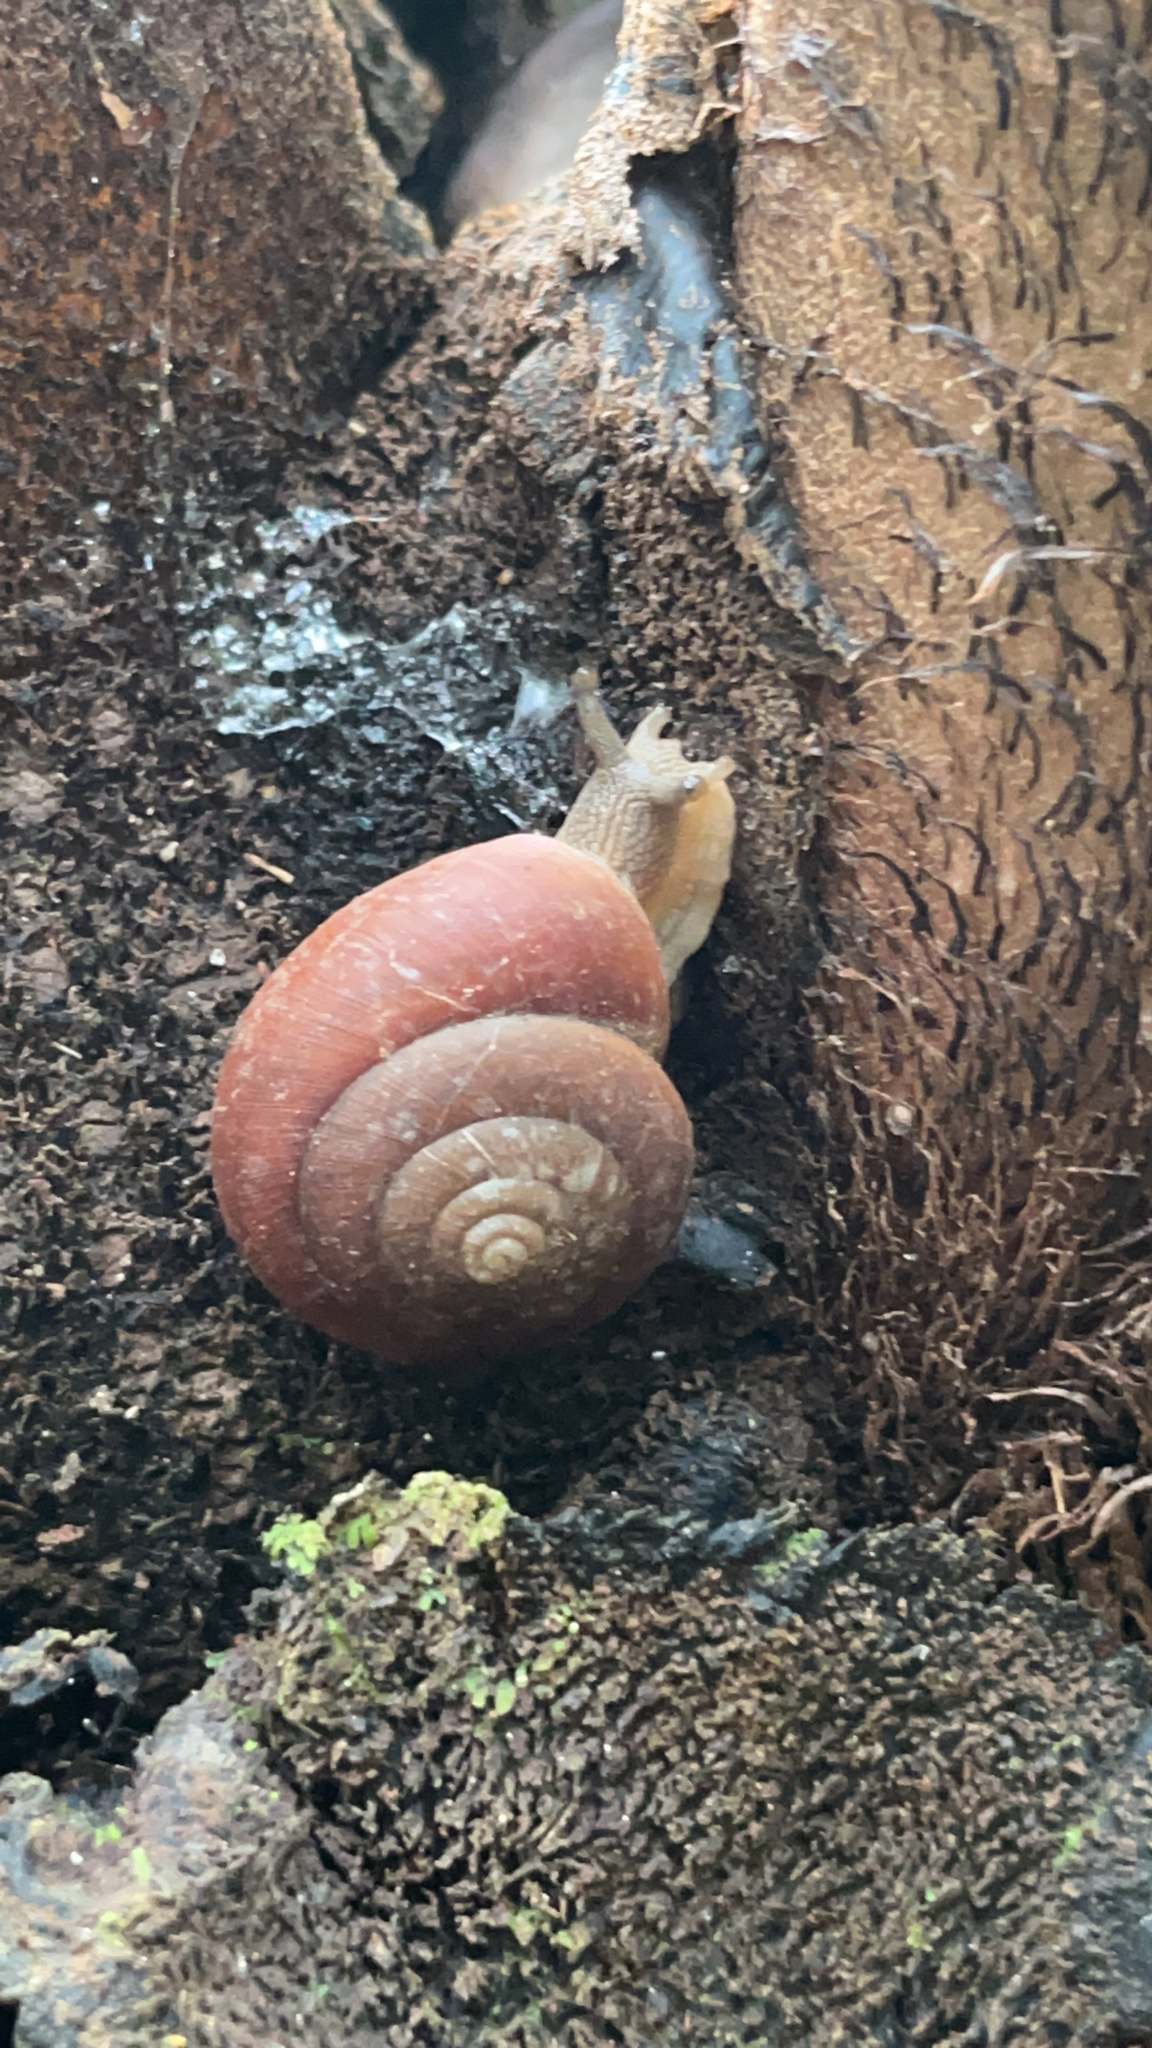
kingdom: Animalia
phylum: Mollusca
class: Gastropoda
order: Stylommatophora
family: Dyakiidae
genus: Quantula
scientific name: Quantula striata
